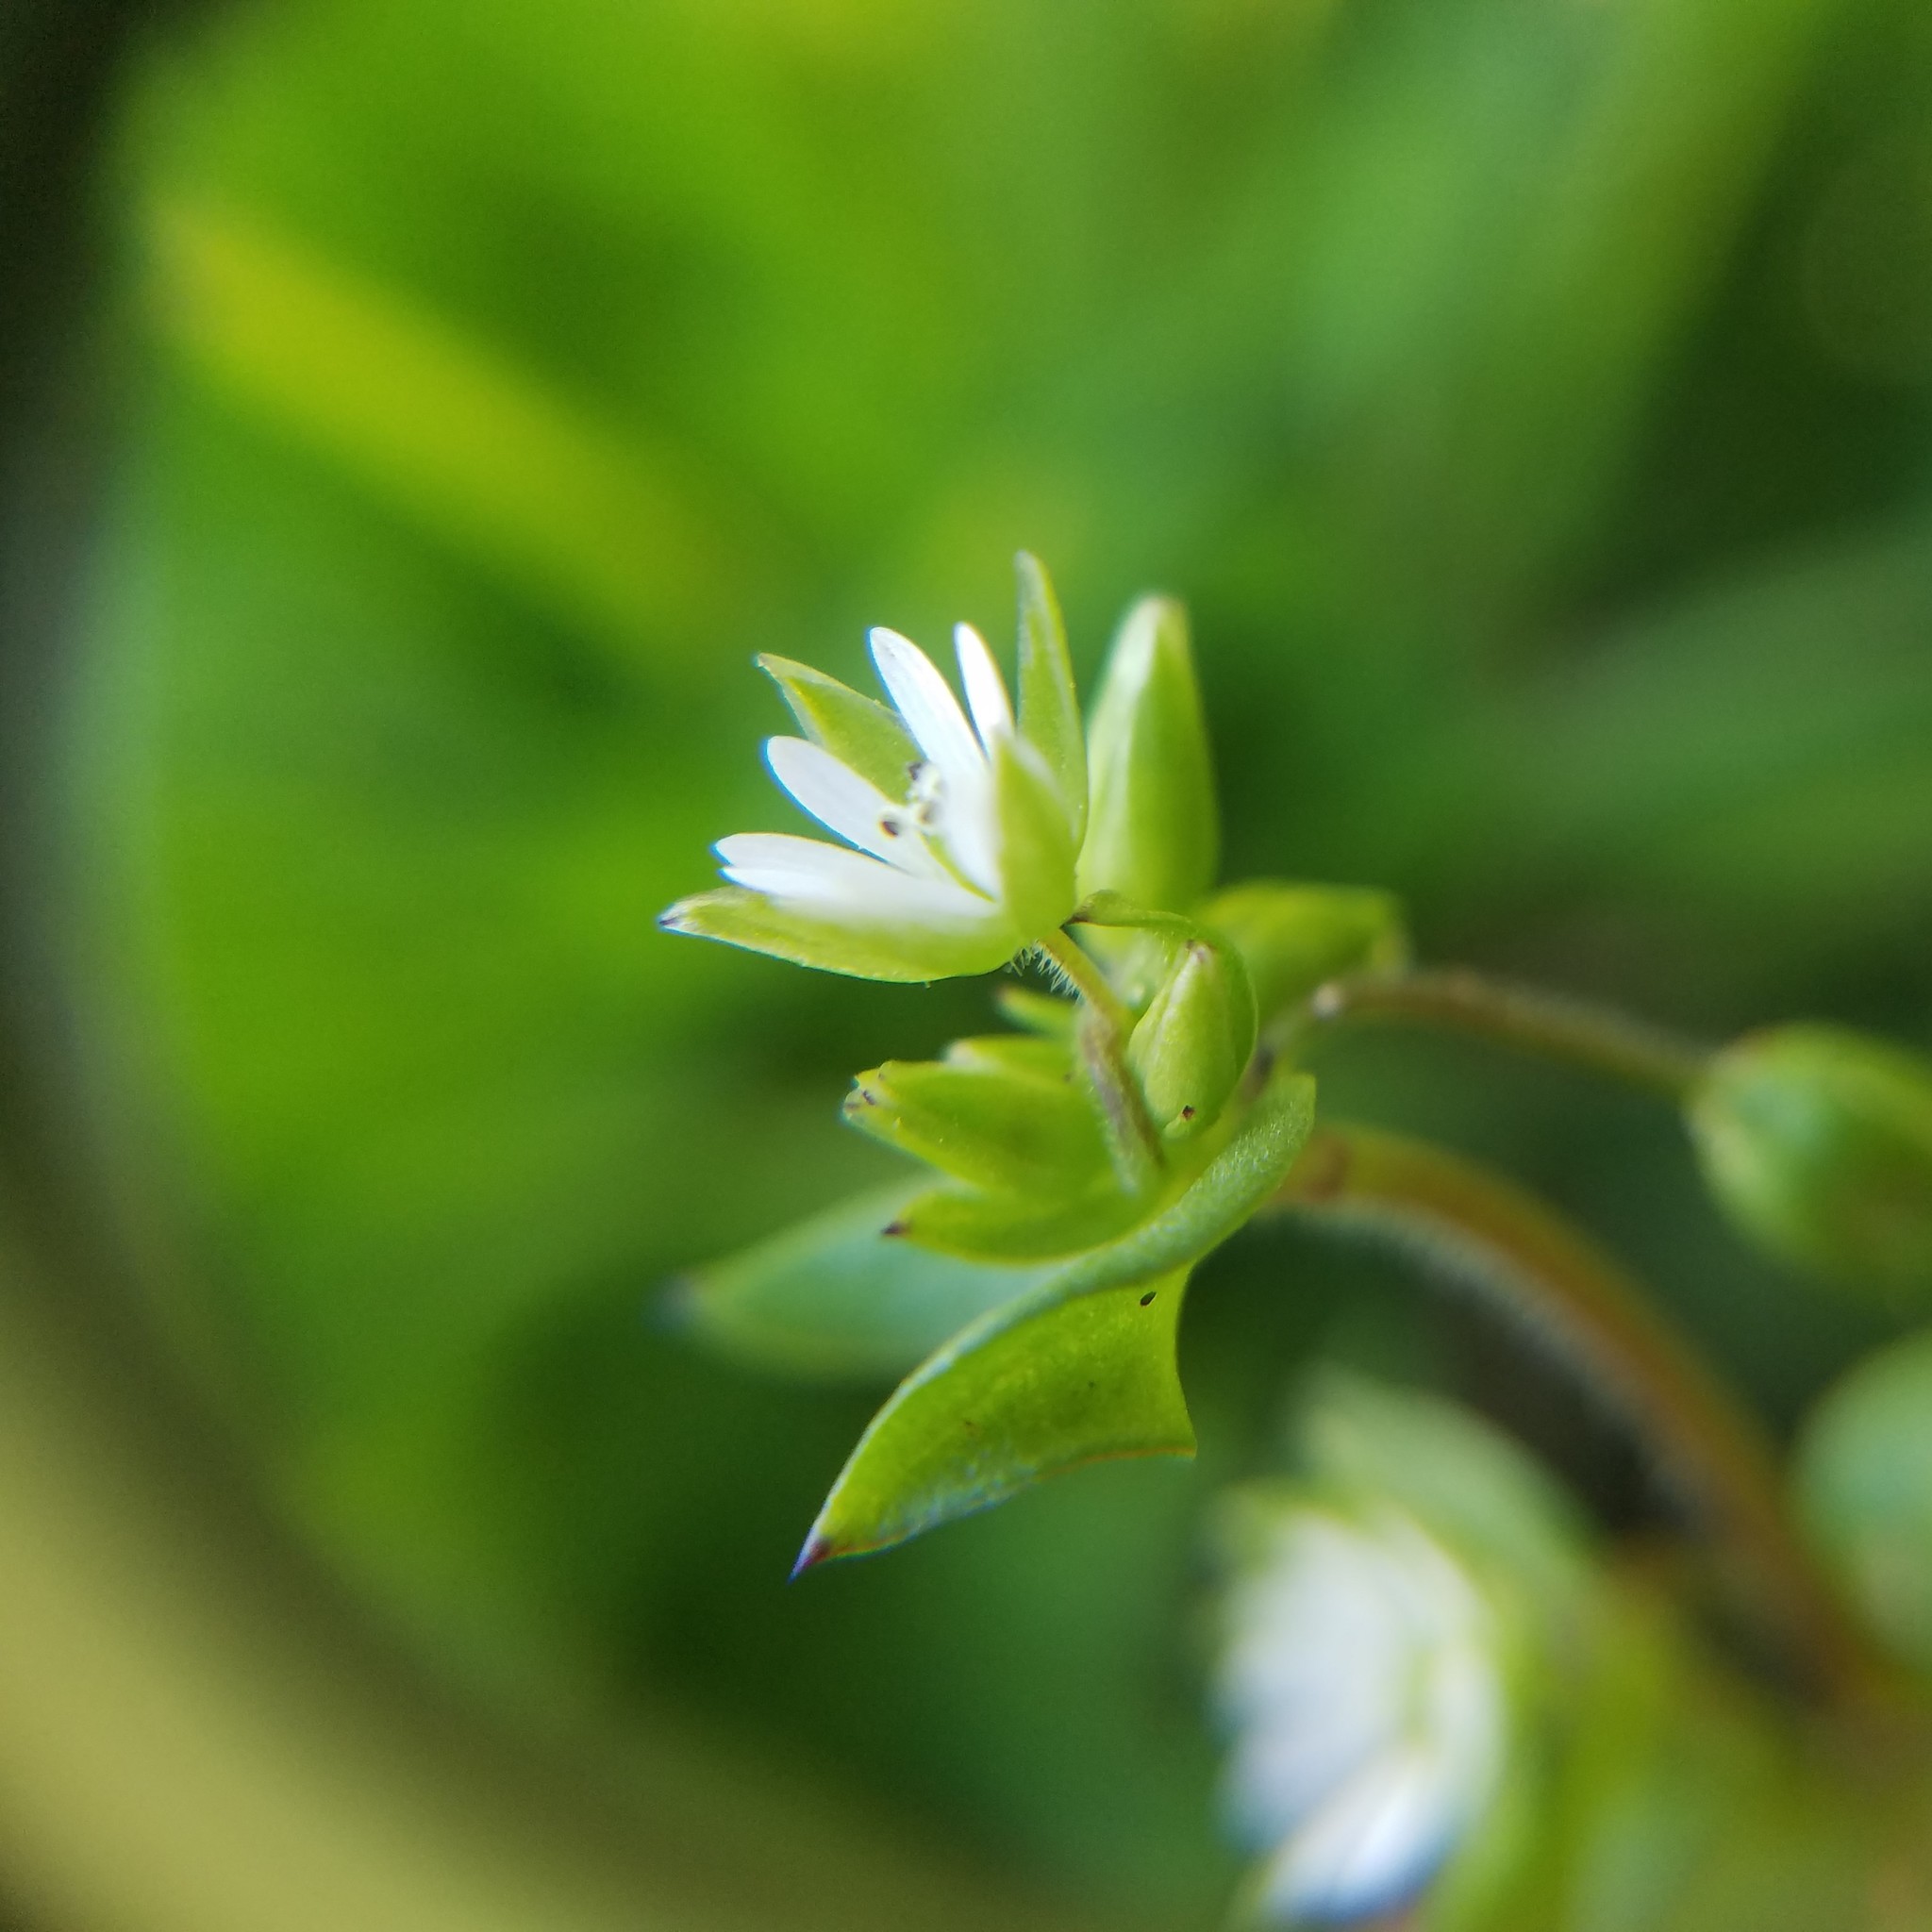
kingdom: Plantae
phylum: Tracheophyta
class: Magnoliopsida
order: Caryophyllales
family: Caryophyllaceae
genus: Stellaria
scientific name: Stellaria media
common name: Common chickweed
